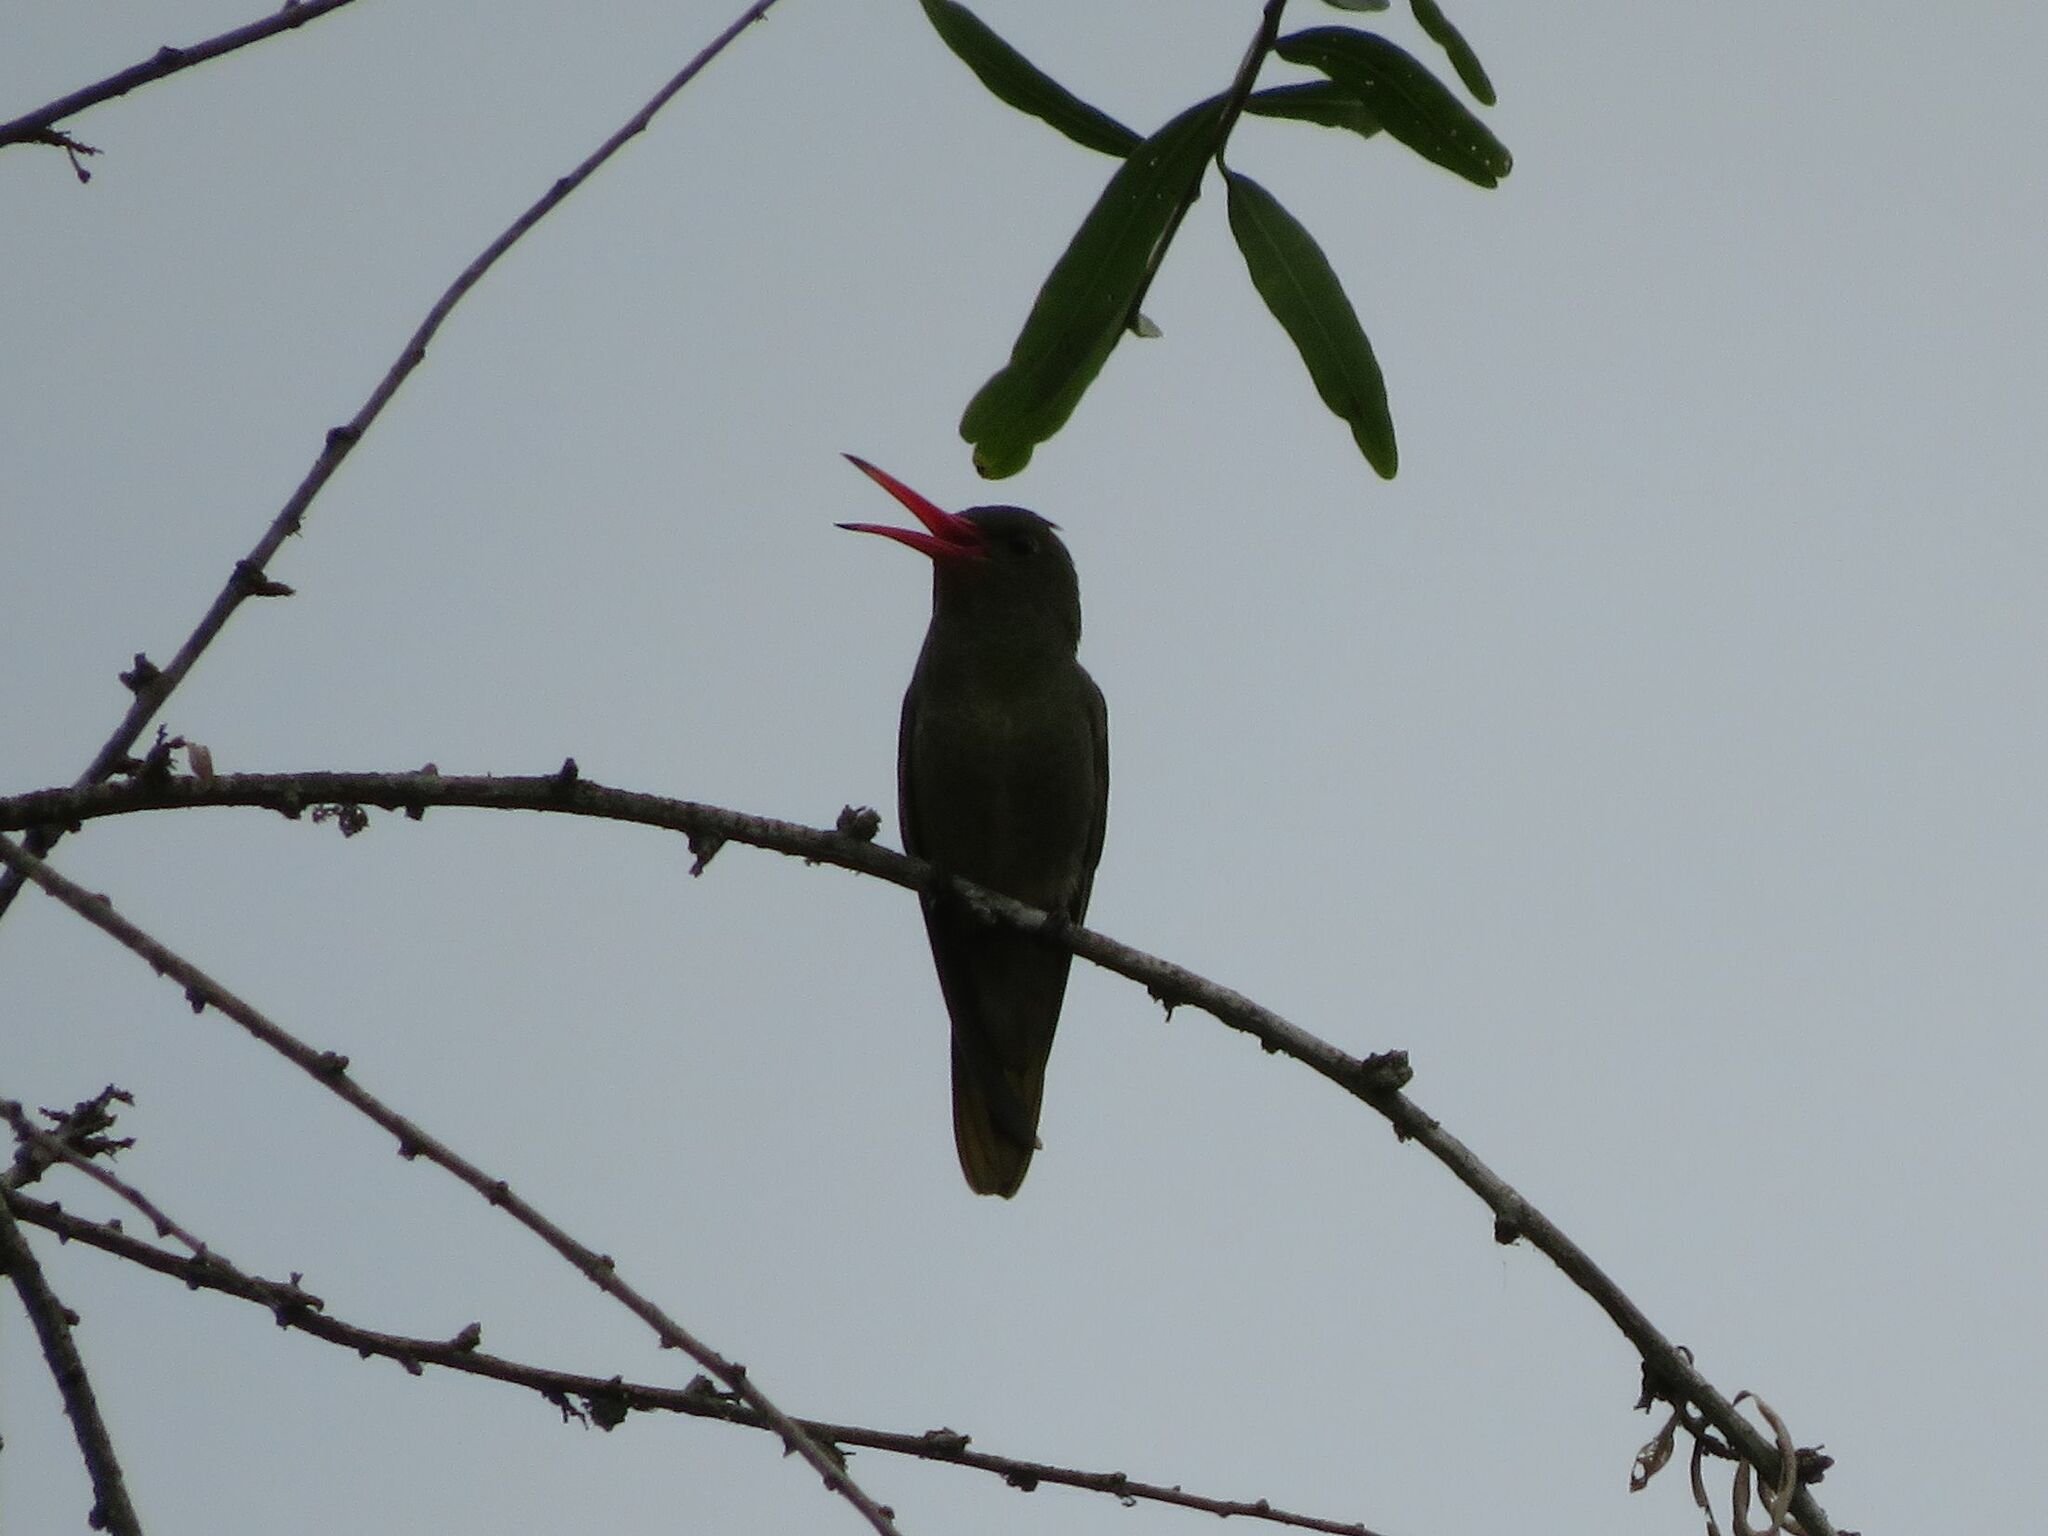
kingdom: Animalia
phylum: Chordata
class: Aves
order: Apodiformes
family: Trochilidae
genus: Hylocharis
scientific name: Hylocharis chrysura
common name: Gilded sapphire
